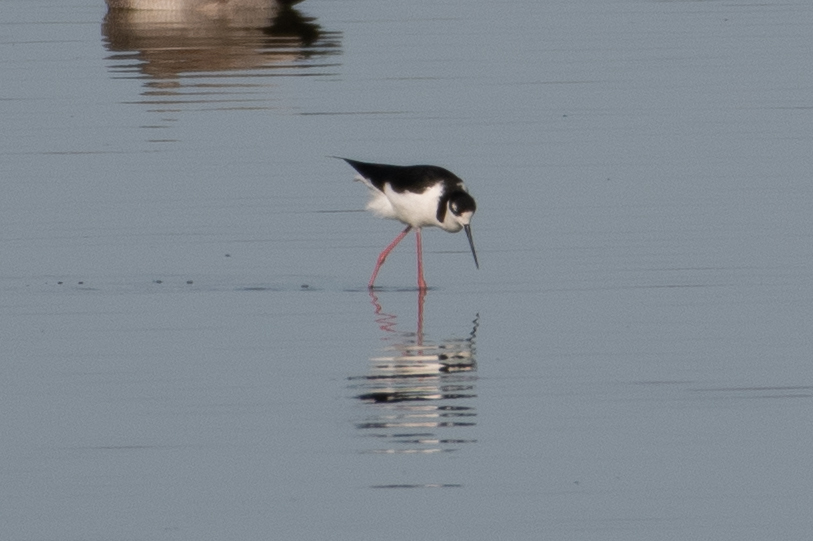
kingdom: Animalia
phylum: Chordata
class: Aves
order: Charadriiformes
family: Recurvirostridae
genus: Himantopus
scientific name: Himantopus mexicanus
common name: Black-necked stilt
